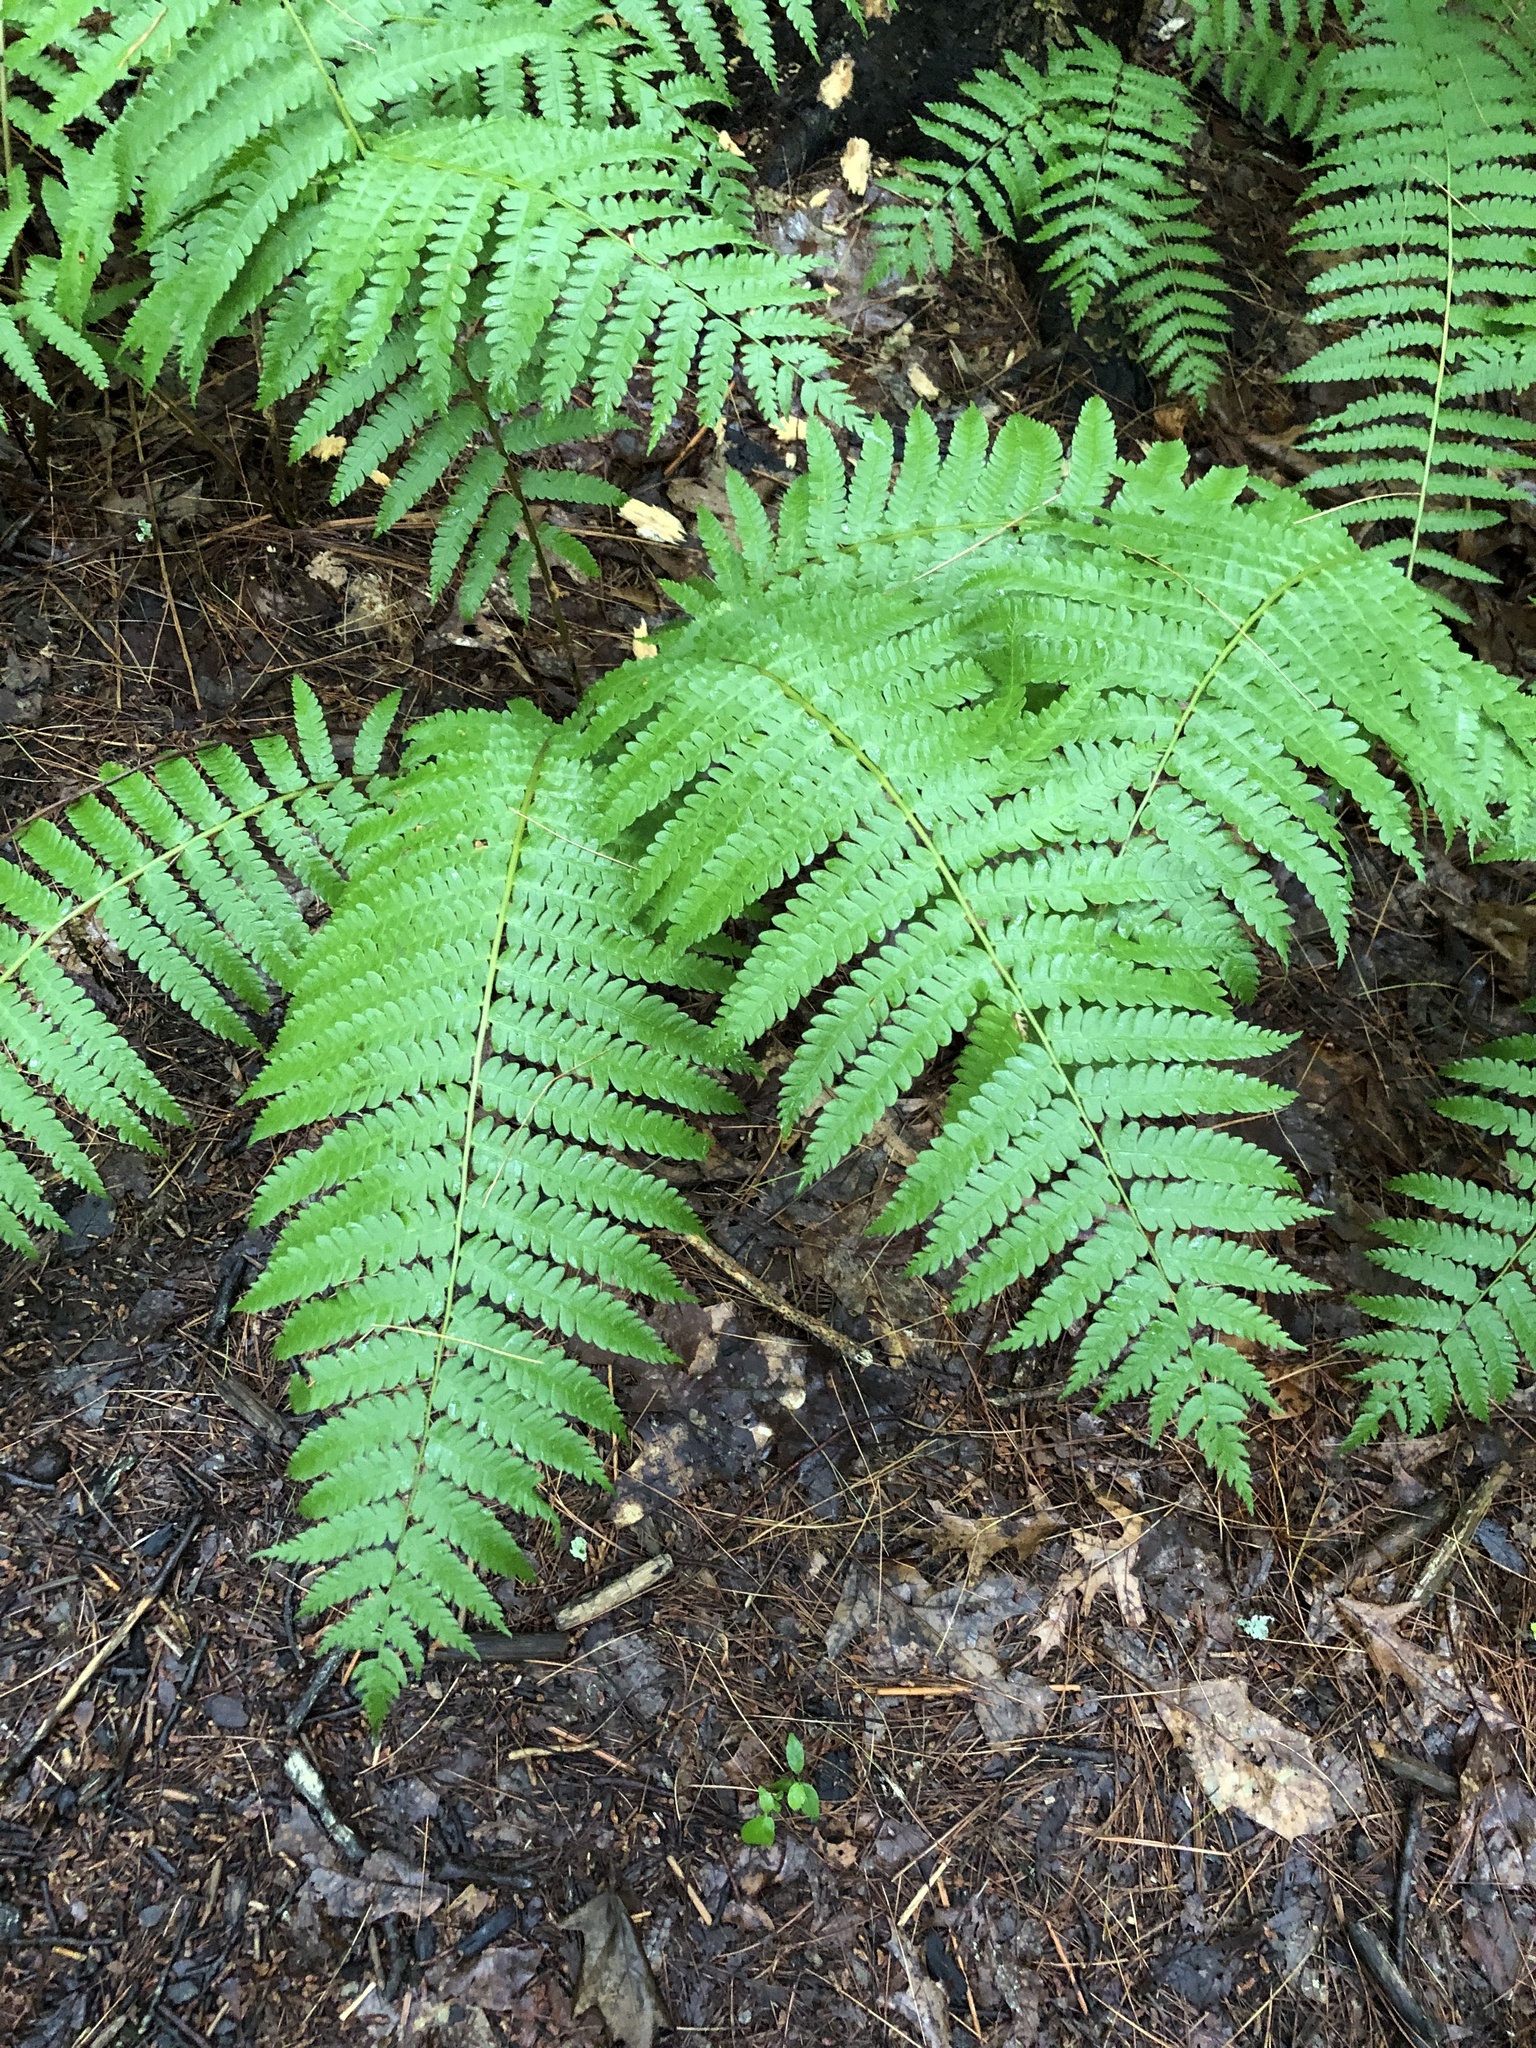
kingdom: Plantae
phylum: Tracheophyta
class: Polypodiopsida
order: Osmundales
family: Osmundaceae
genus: Osmundastrum
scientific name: Osmundastrum cinnamomeum
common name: Cinnamon fern
